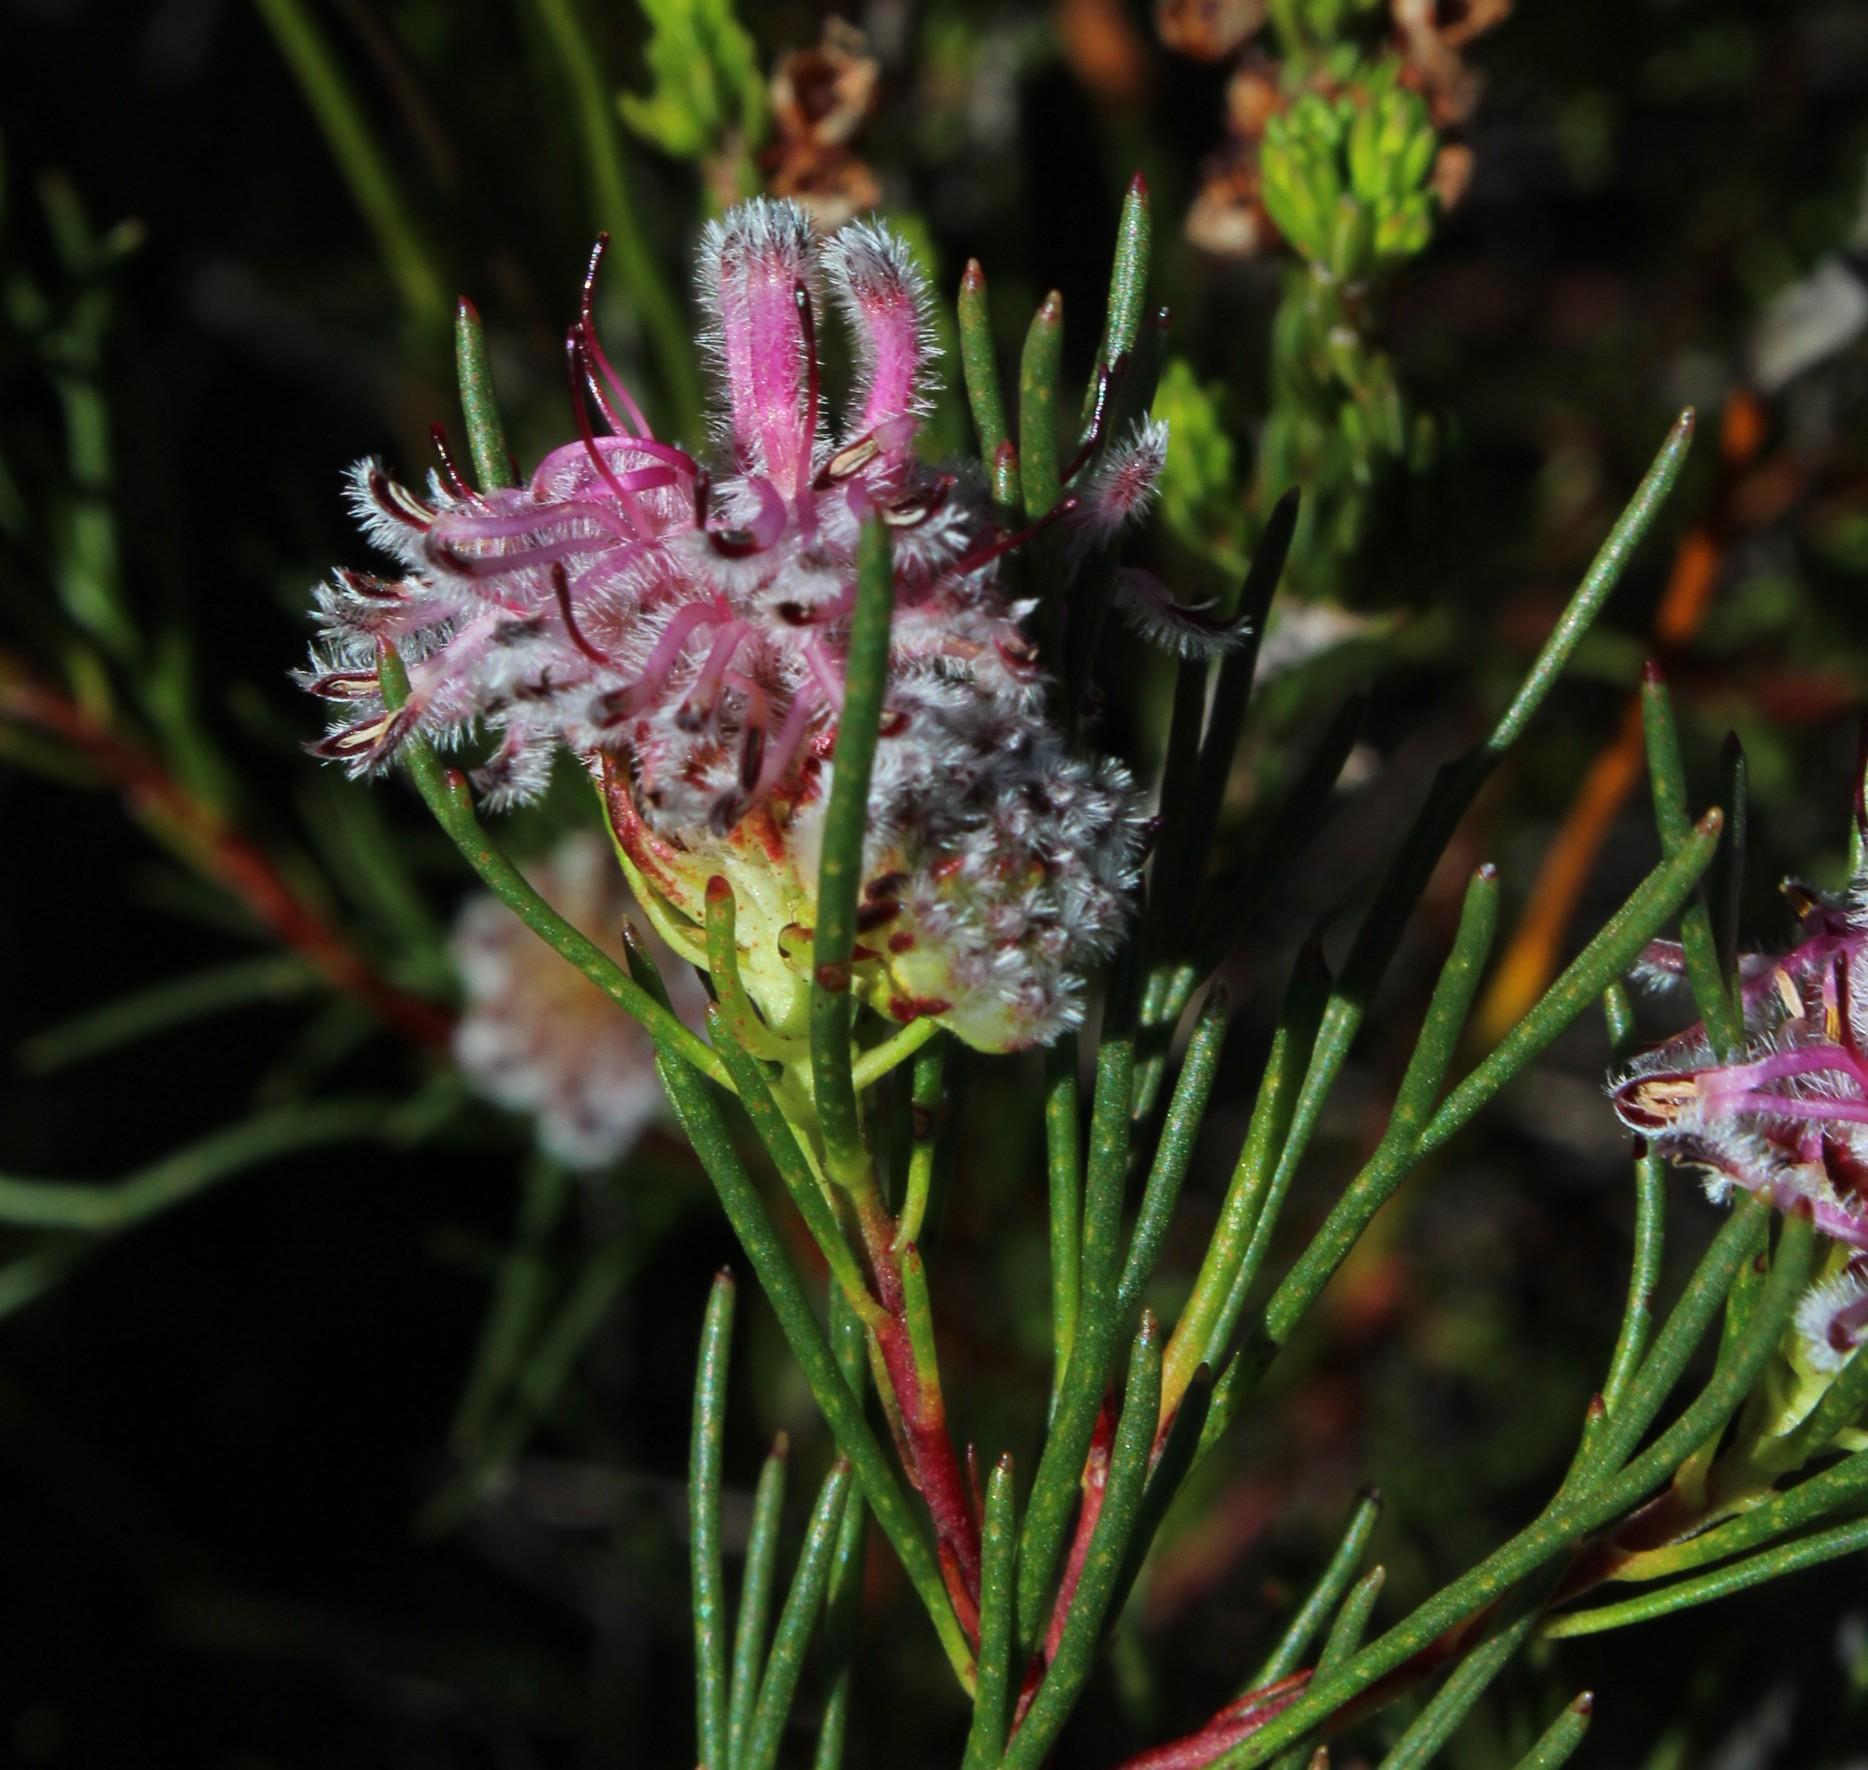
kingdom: Plantae
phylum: Tracheophyta
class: Magnoliopsida
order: Proteales
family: Proteaceae
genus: Serruria
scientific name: Serruria nervosa
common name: Fluted spiderhead
